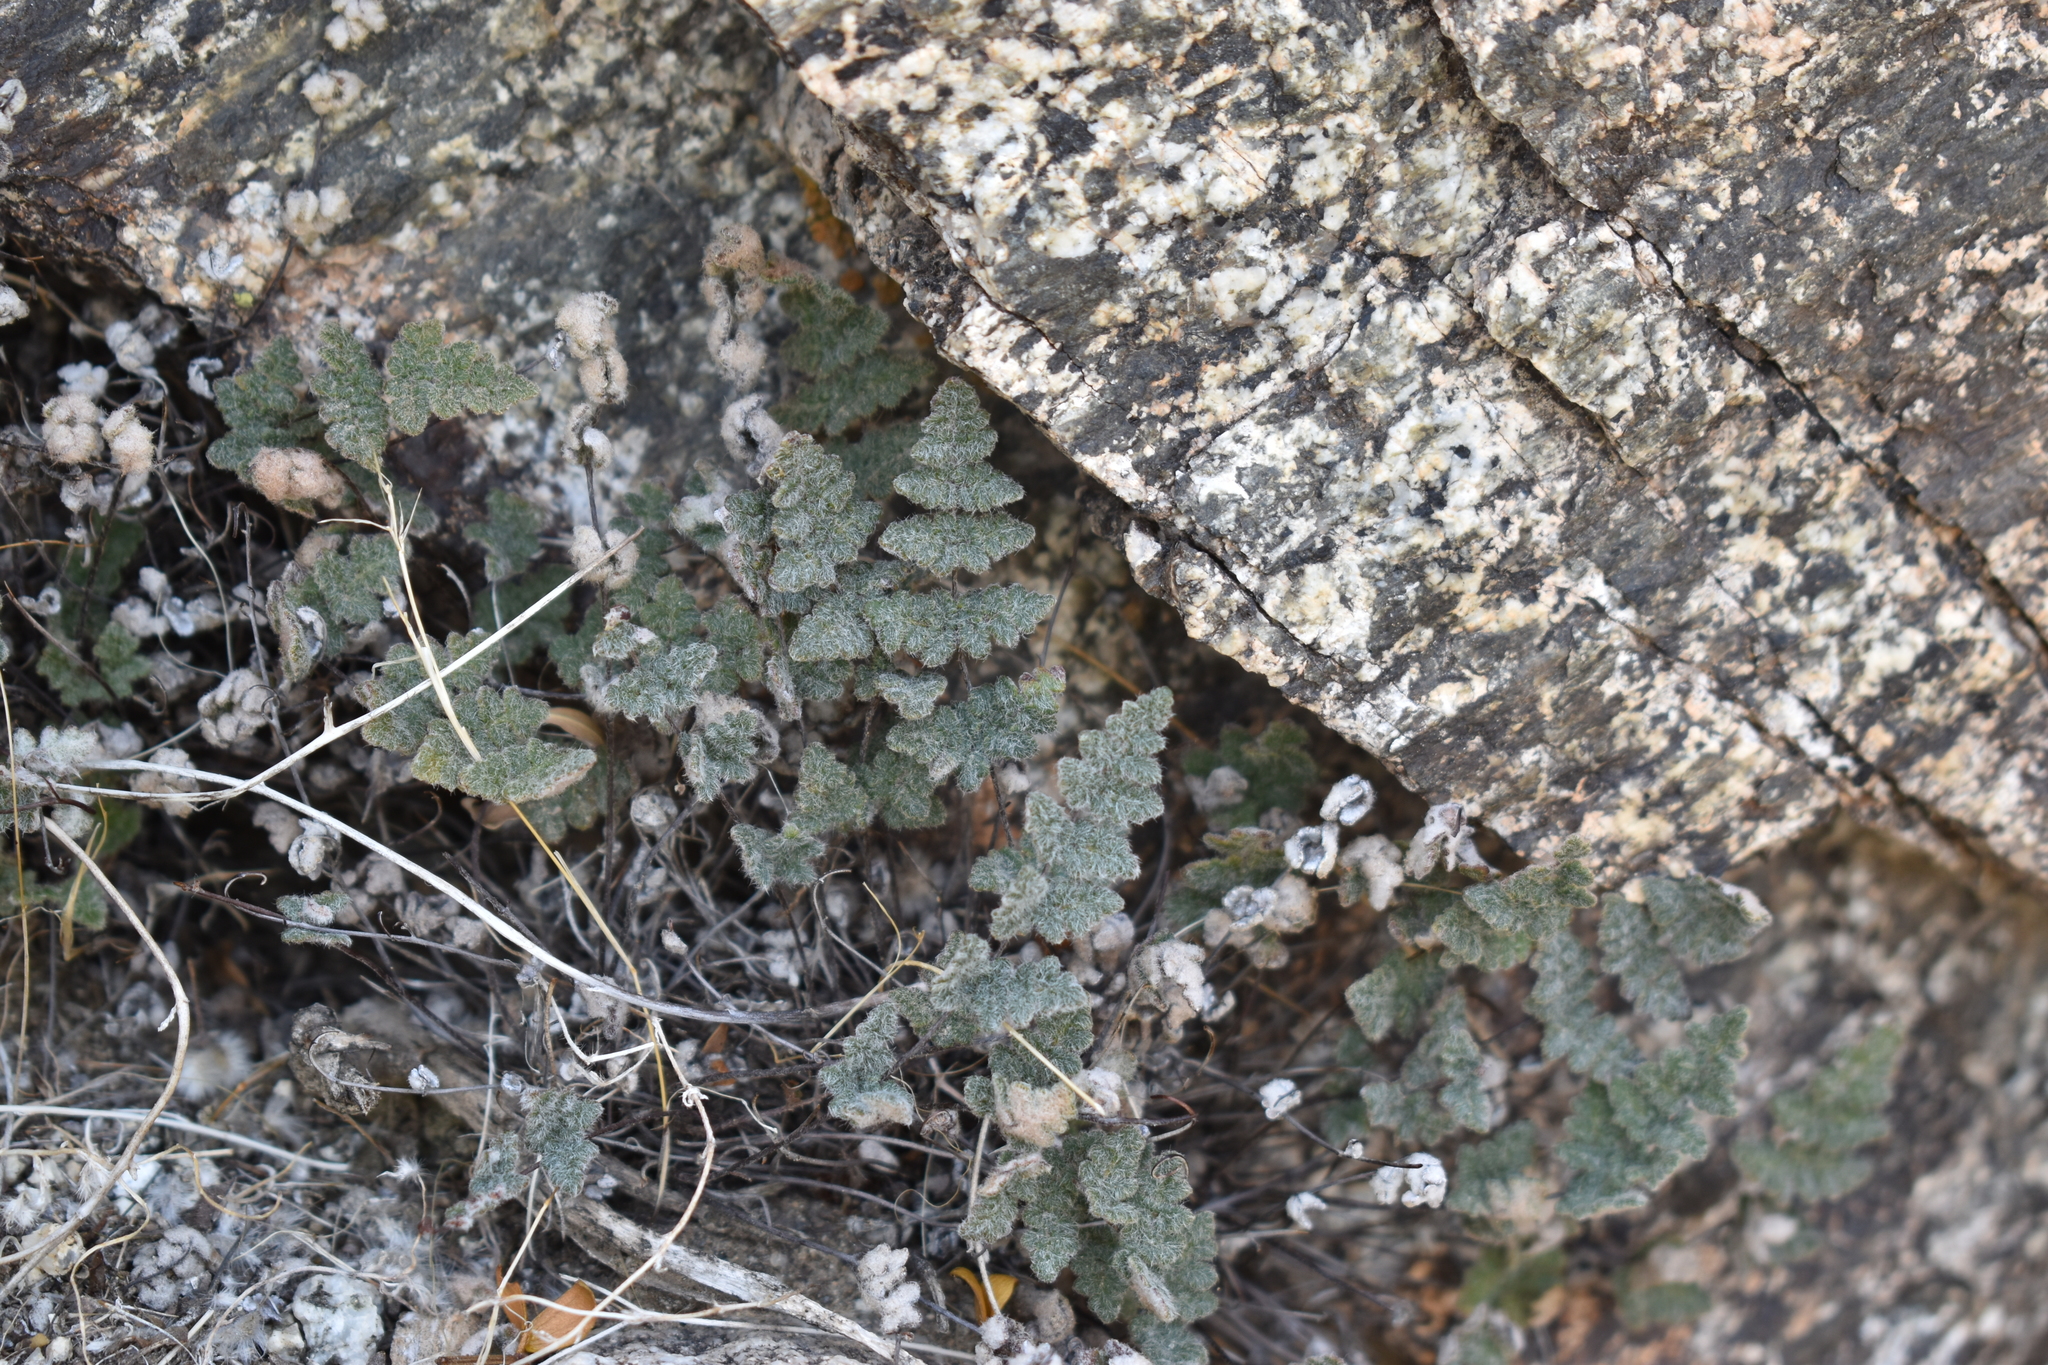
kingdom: Plantae
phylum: Tracheophyta
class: Polypodiopsida
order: Polypodiales
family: Pteridaceae
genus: Myriopteris
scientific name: Myriopteris parryi
